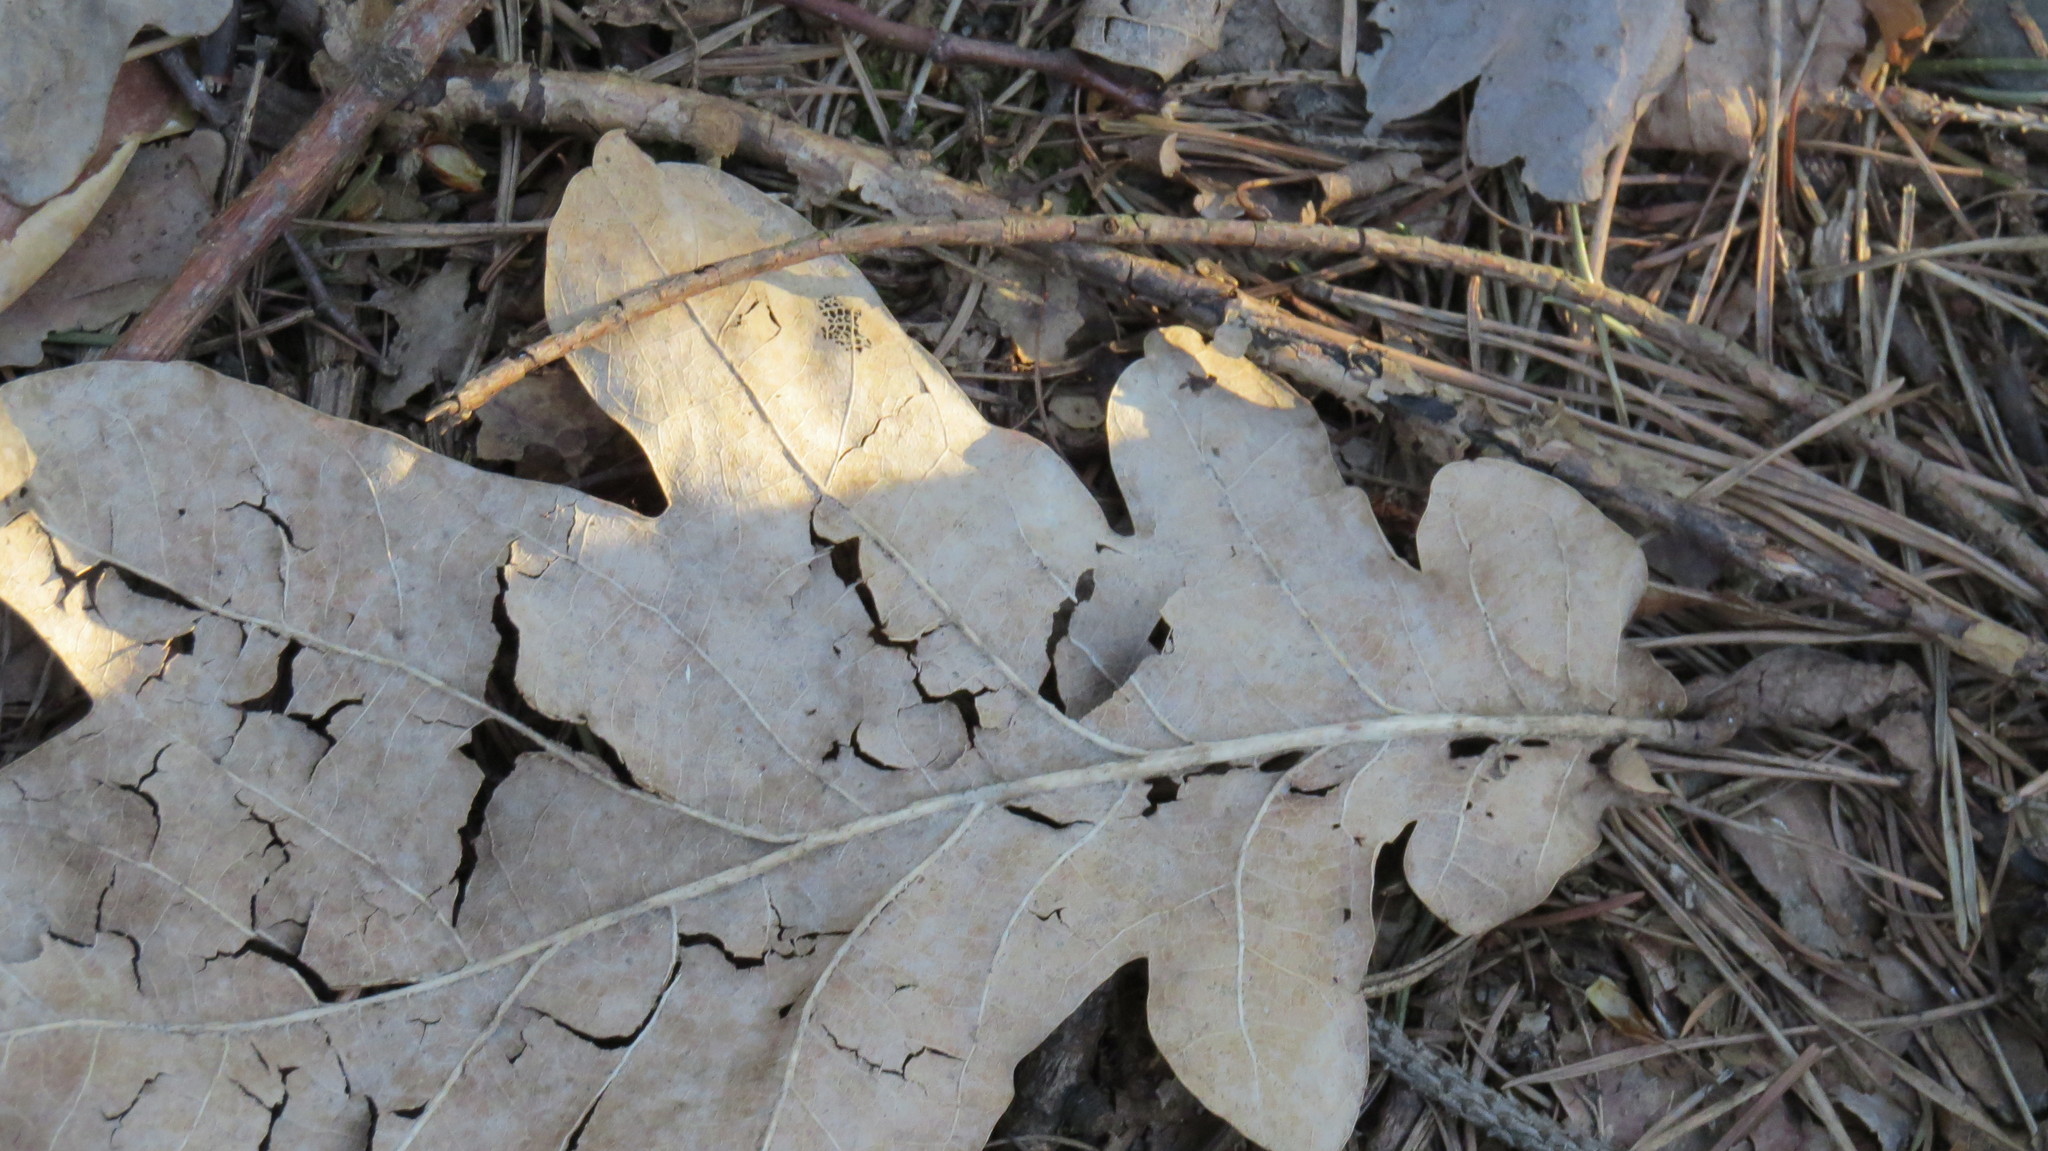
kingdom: Plantae
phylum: Tracheophyta
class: Magnoliopsida
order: Fagales
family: Fagaceae
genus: Quercus
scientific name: Quercus robur
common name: Pedunculate oak
